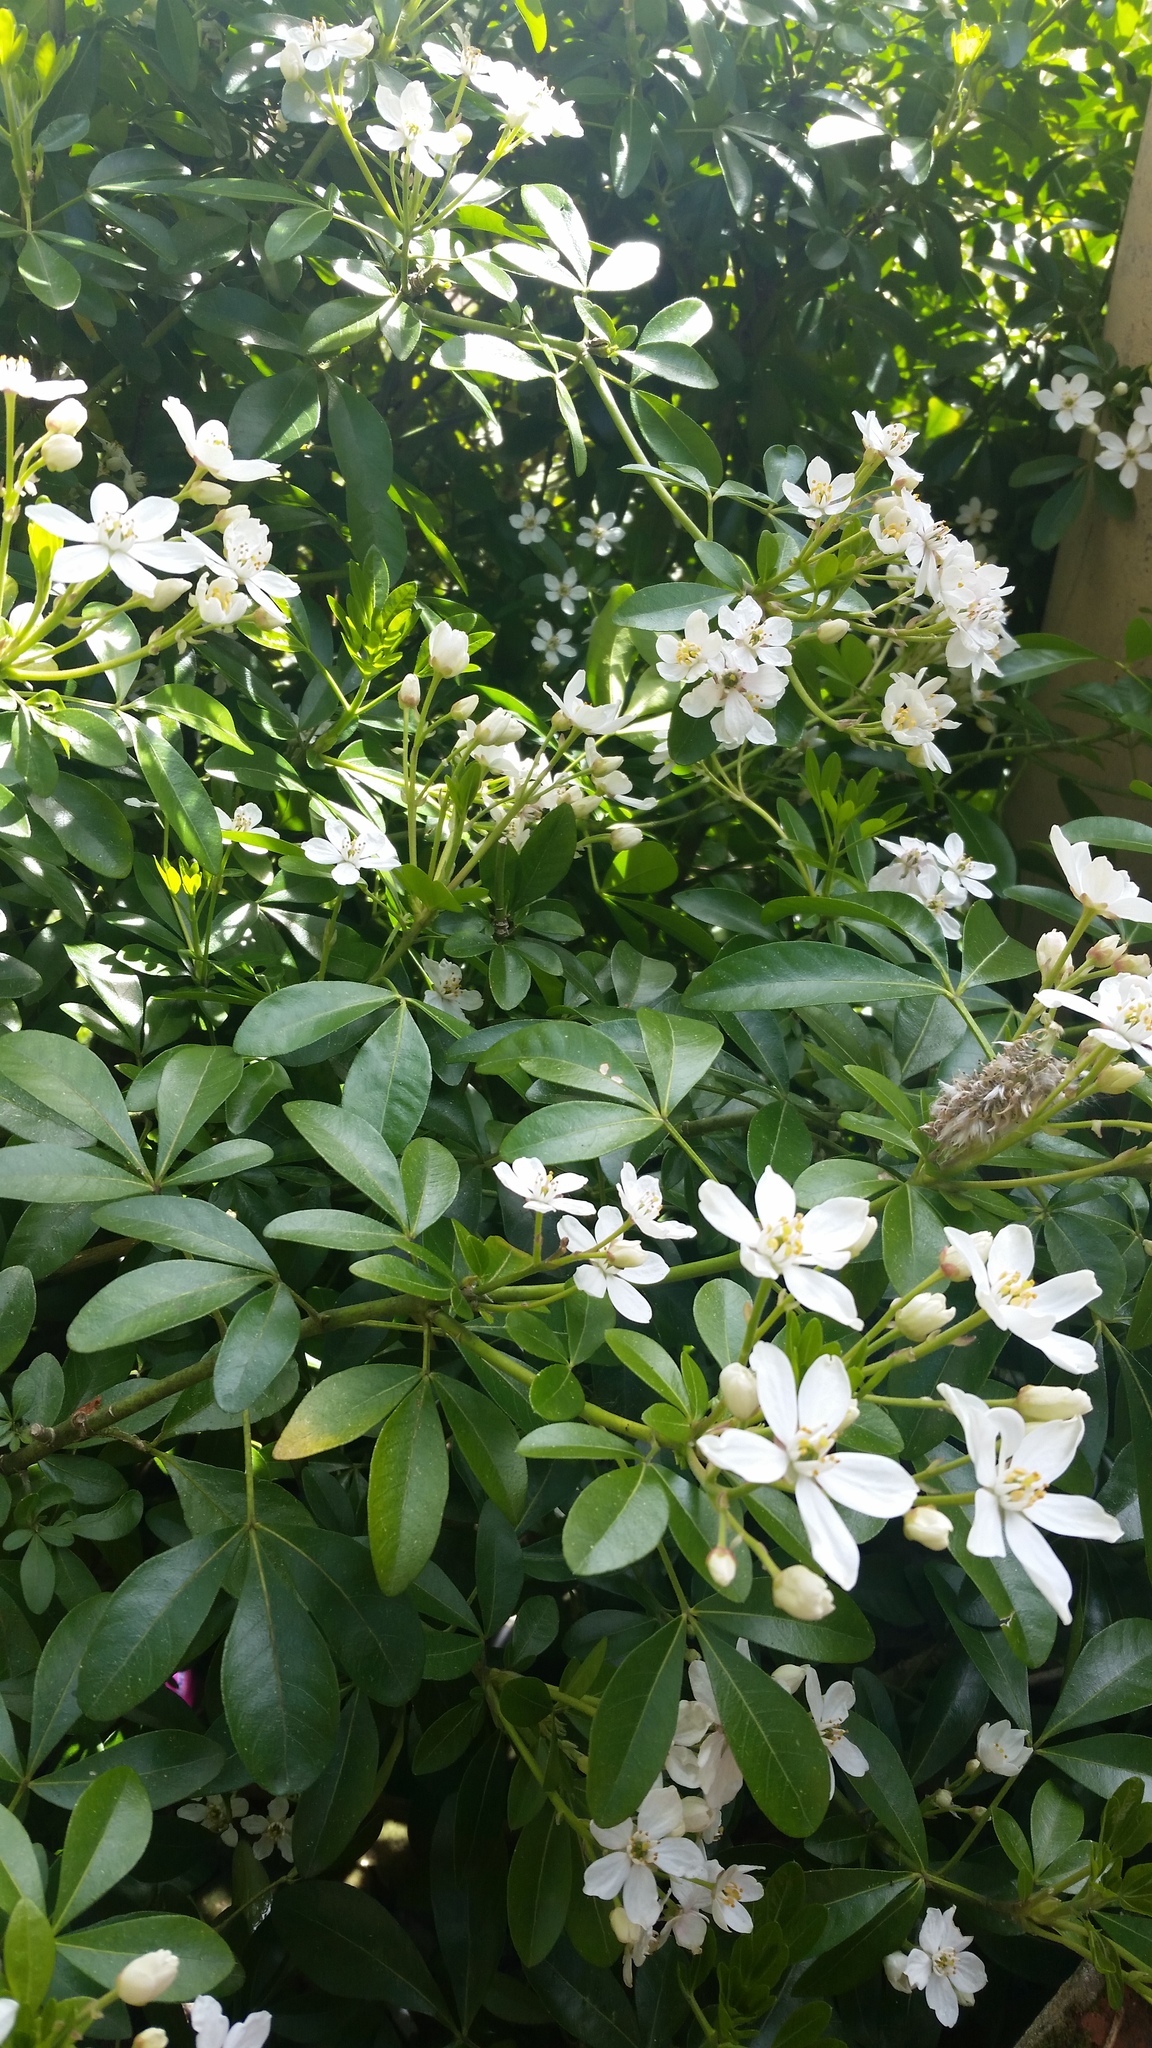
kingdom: Plantae
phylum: Tracheophyta
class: Magnoliopsida
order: Sapindales
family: Rutaceae
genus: Choisya
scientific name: Choisya ternata
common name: Mexican orange
